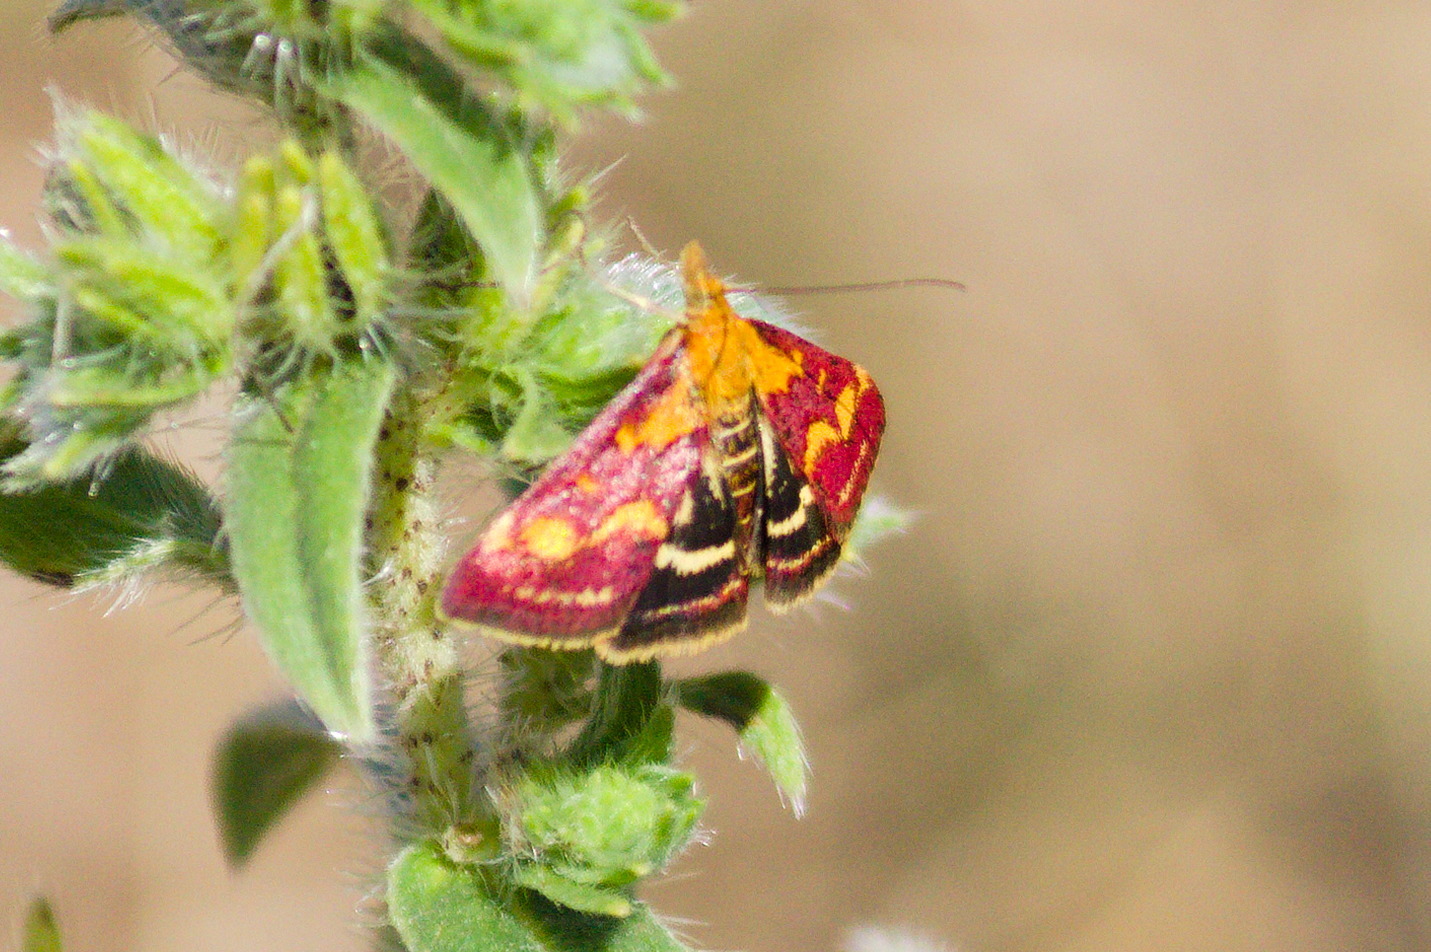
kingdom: Animalia
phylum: Arthropoda
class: Insecta
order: Lepidoptera
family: Crambidae
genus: Pyrausta
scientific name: Pyrausta purpuralis
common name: Common purple & gold
